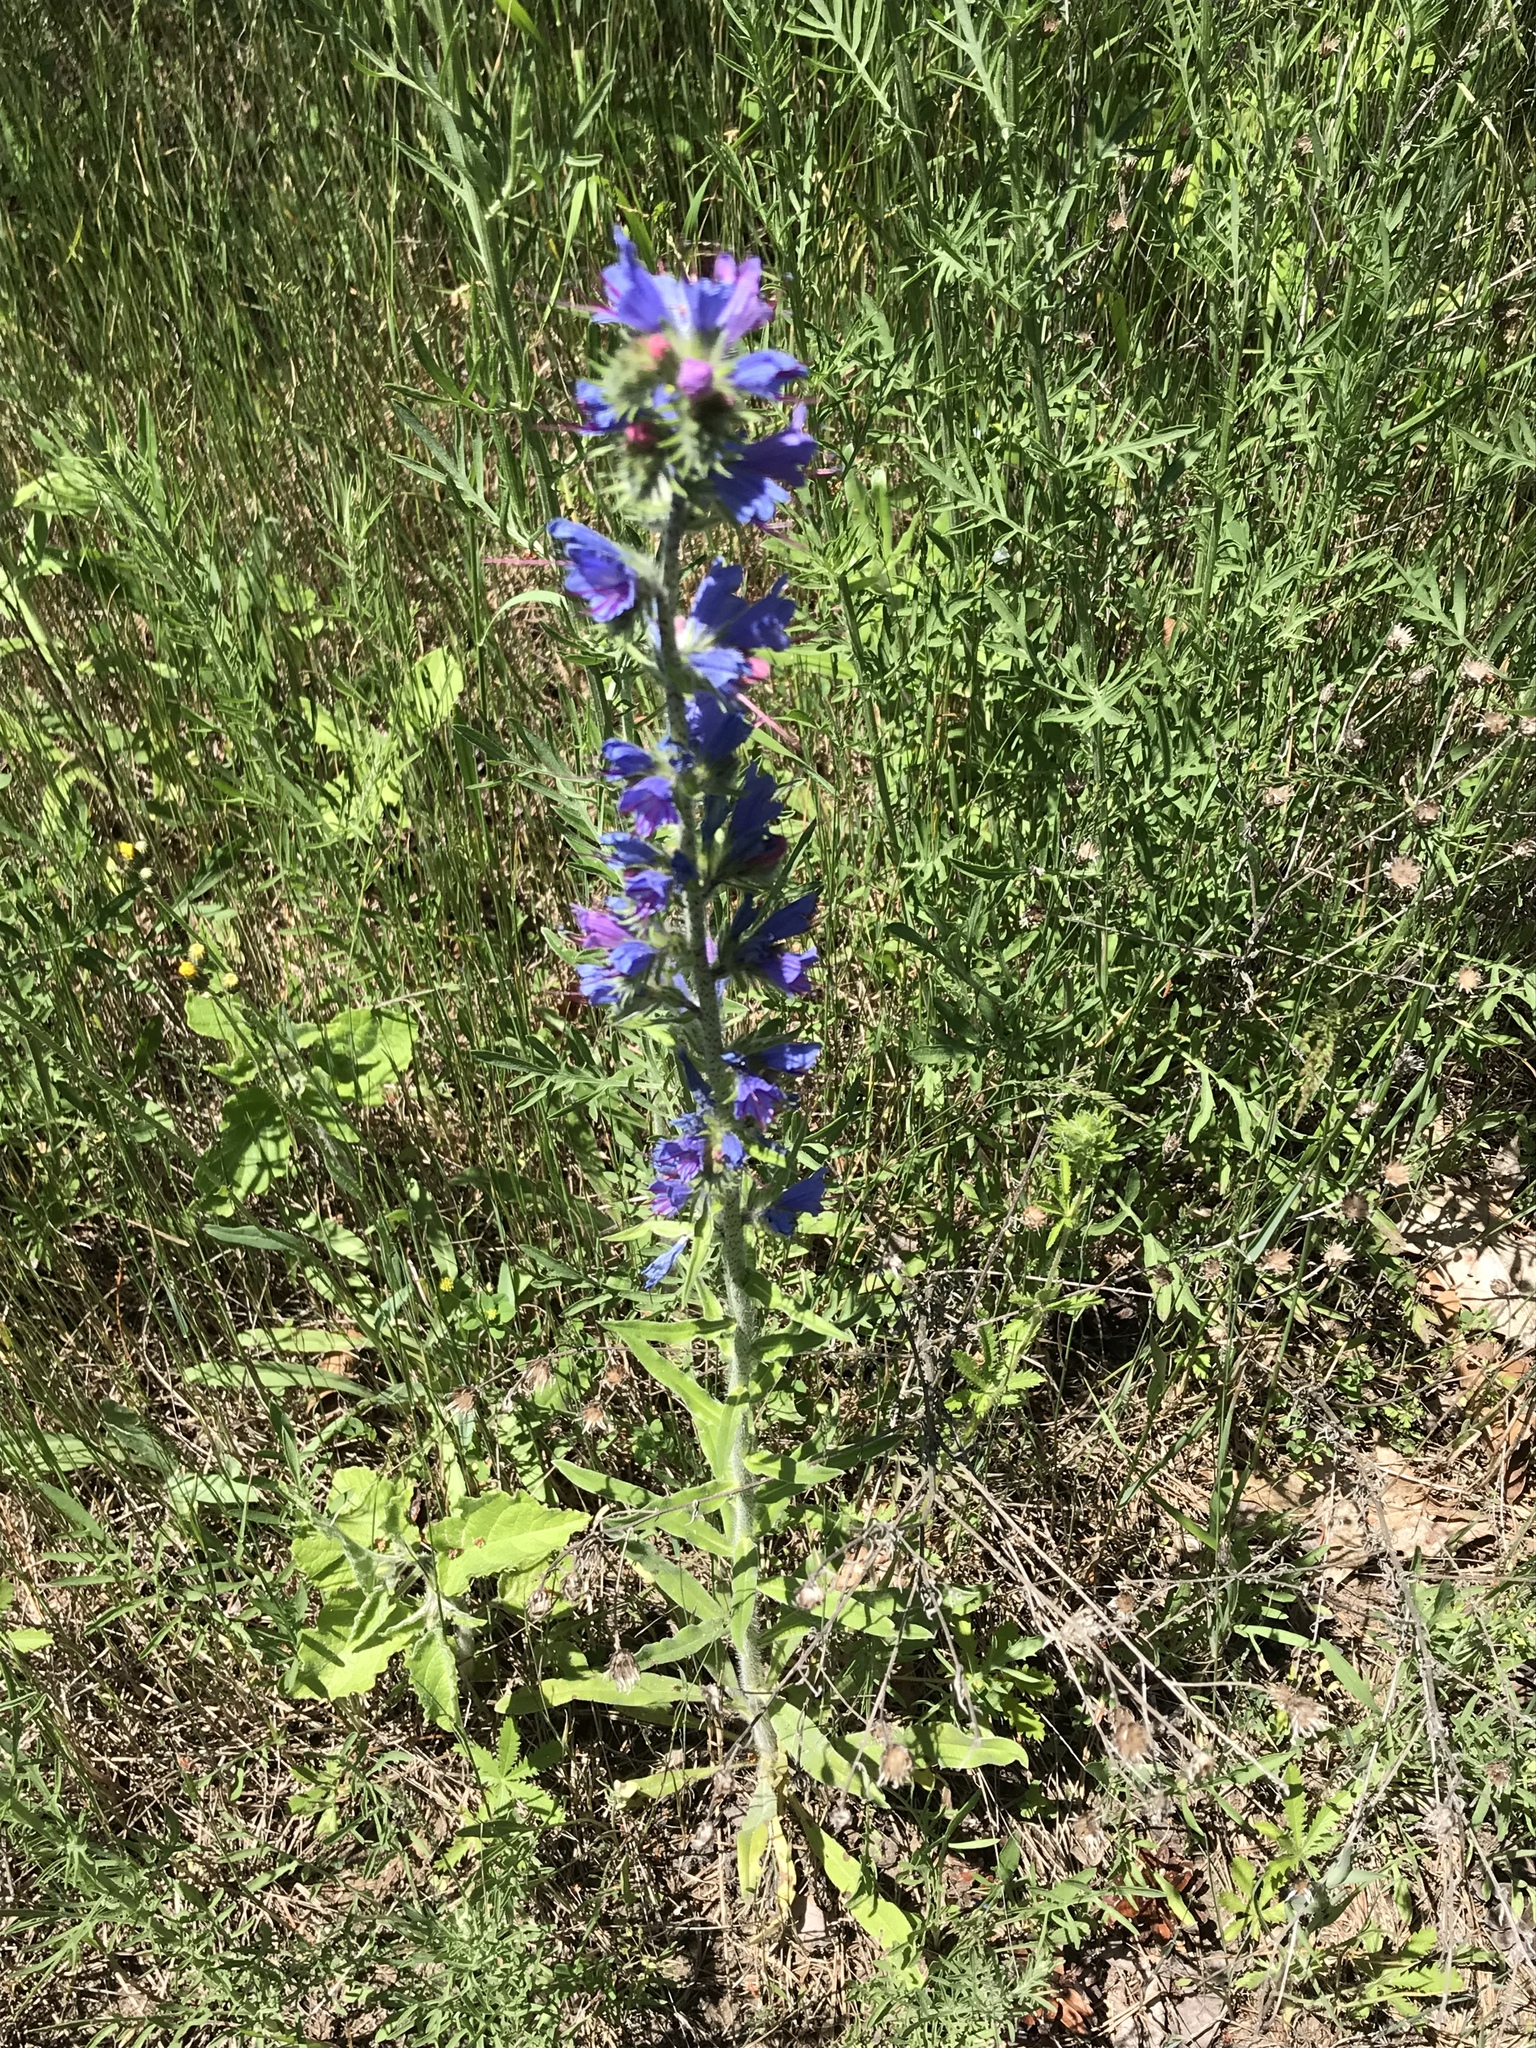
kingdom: Plantae
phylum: Tracheophyta
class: Magnoliopsida
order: Boraginales
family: Boraginaceae
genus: Echium
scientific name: Echium vulgare
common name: Common viper's bugloss
